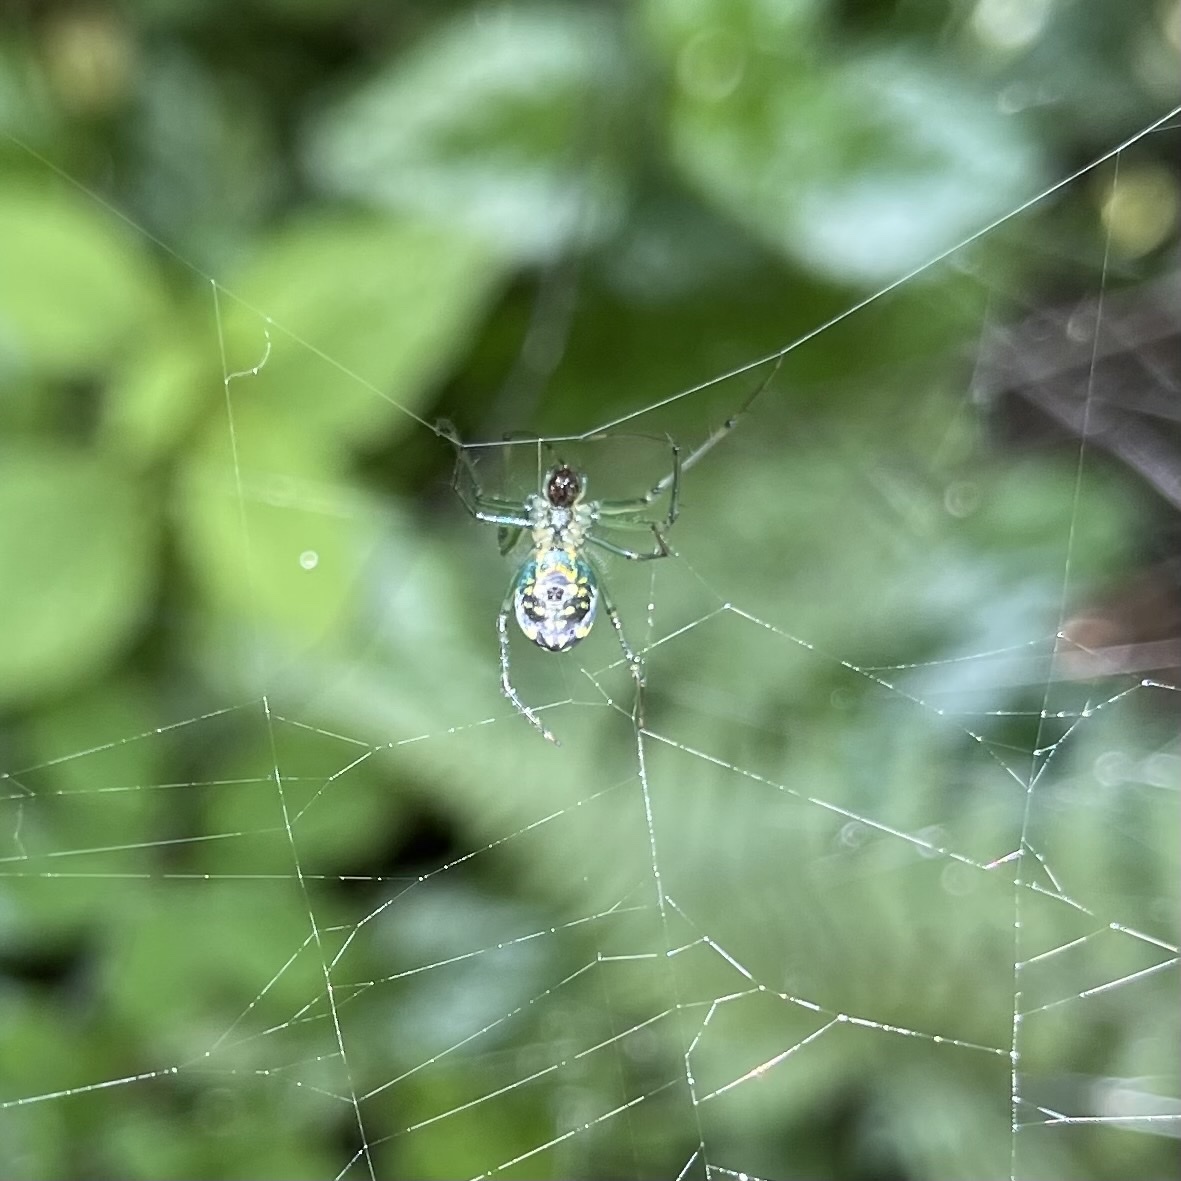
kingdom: Animalia
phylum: Arthropoda
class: Arachnida
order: Araneae
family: Tetragnathidae
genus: Leucauge
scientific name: Leucauge venusta
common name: Longjawed orb weavers
